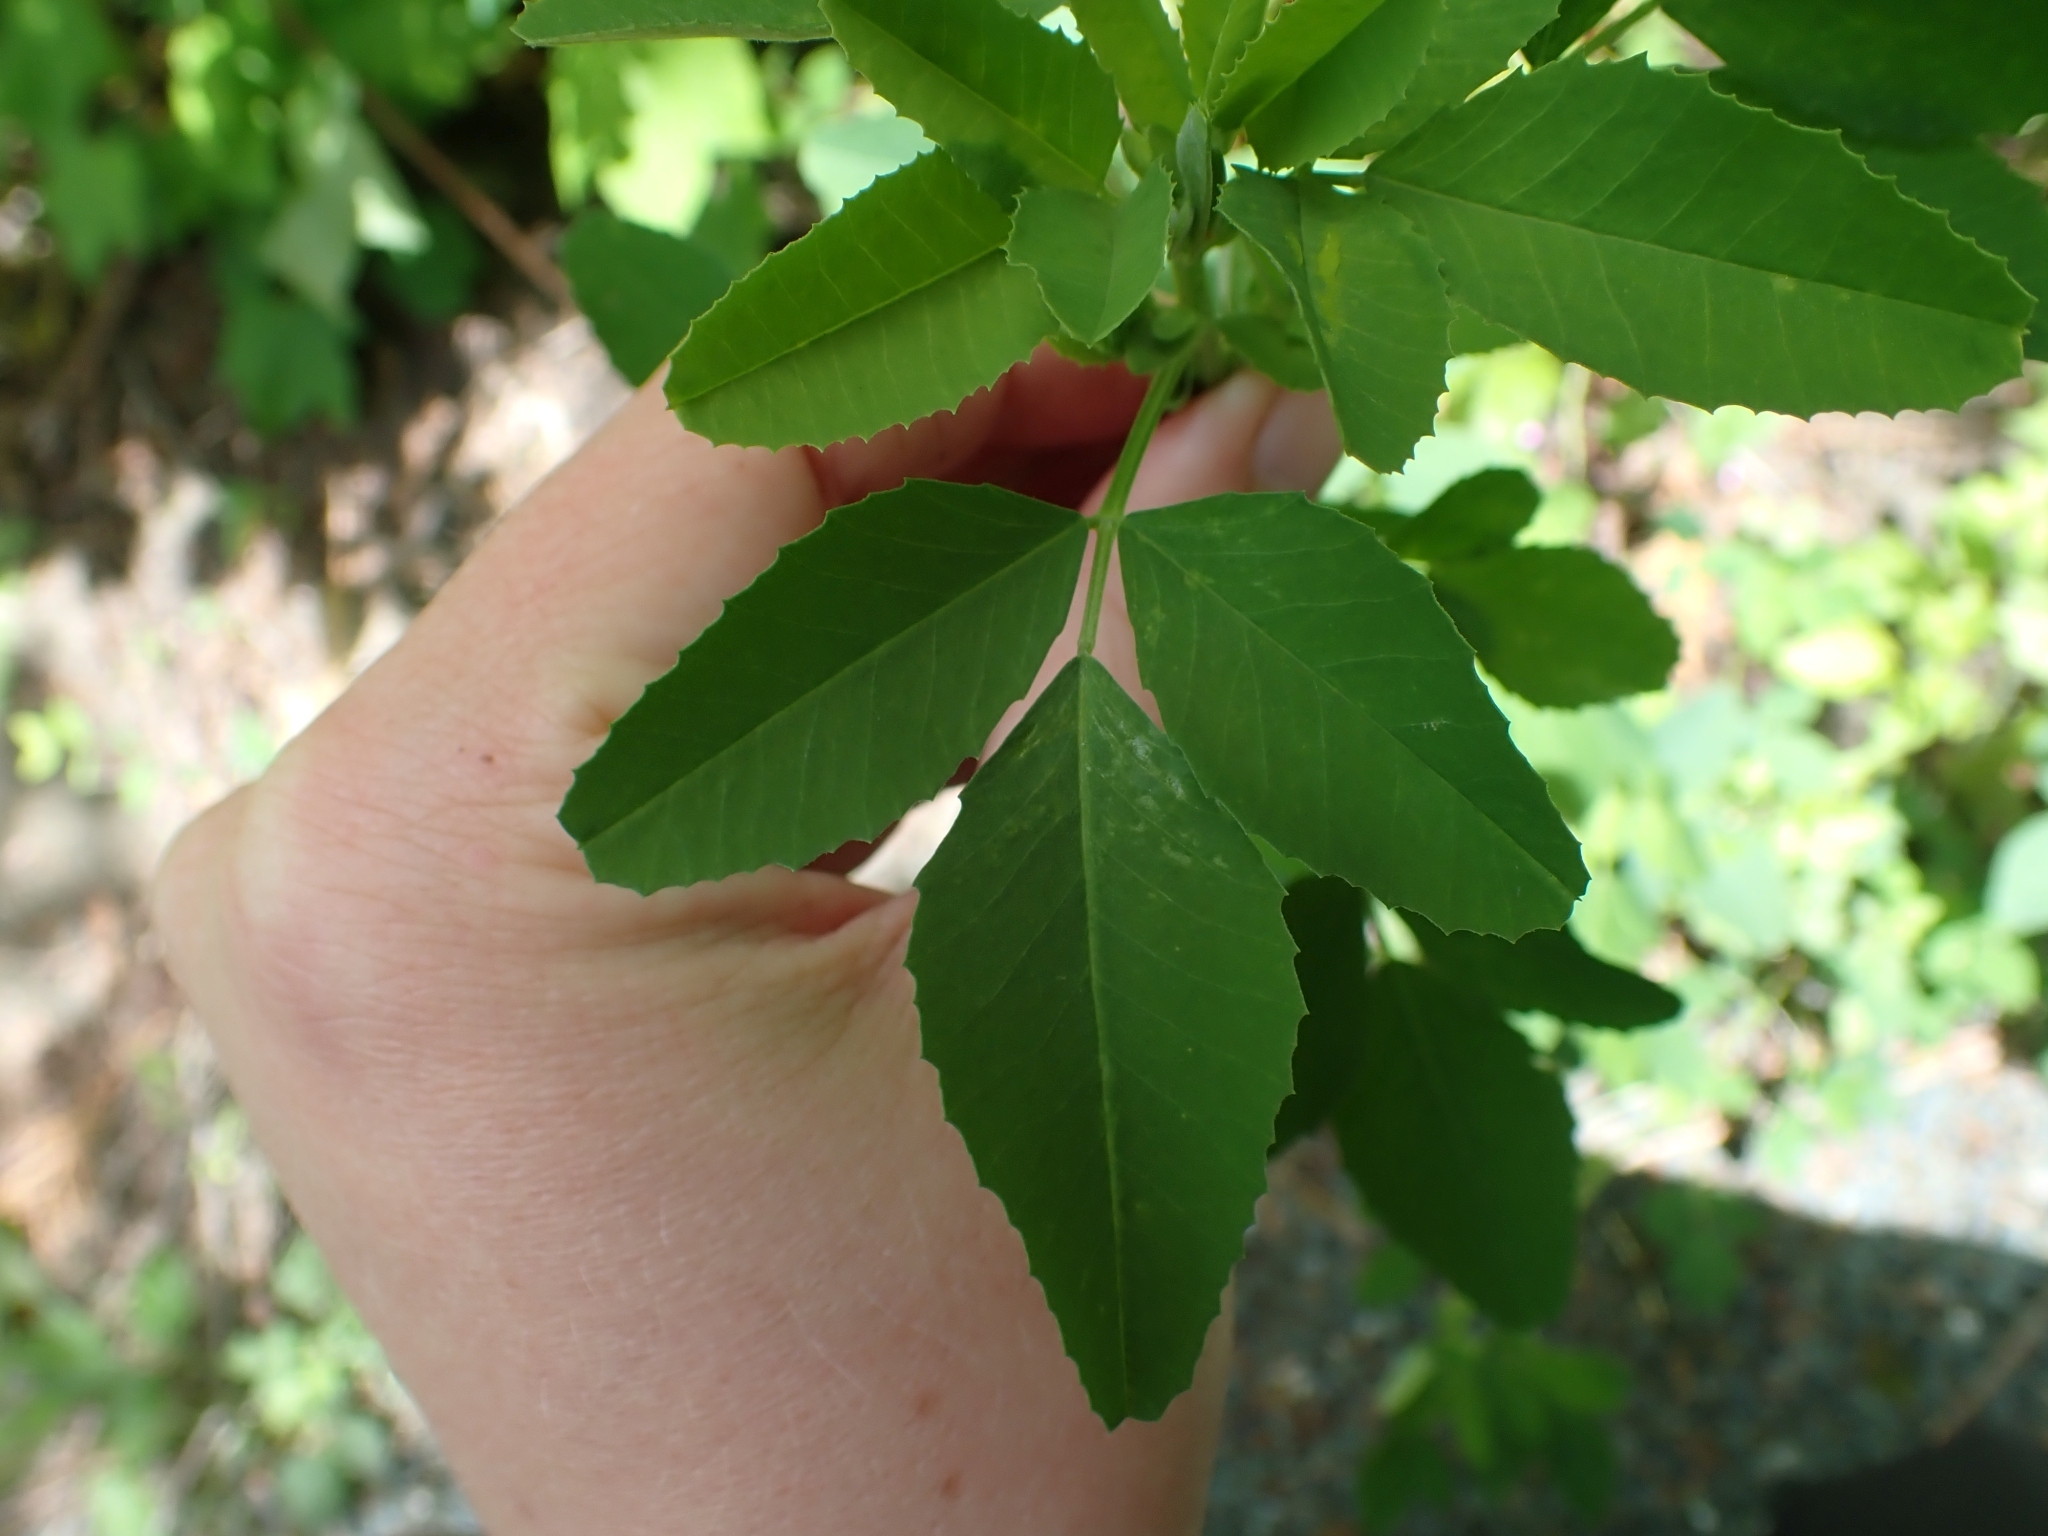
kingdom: Plantae
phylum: Tracheophyta
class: Magnoliopsida
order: Fabales
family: Fabaceae
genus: Melilotus
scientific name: Melilotus
